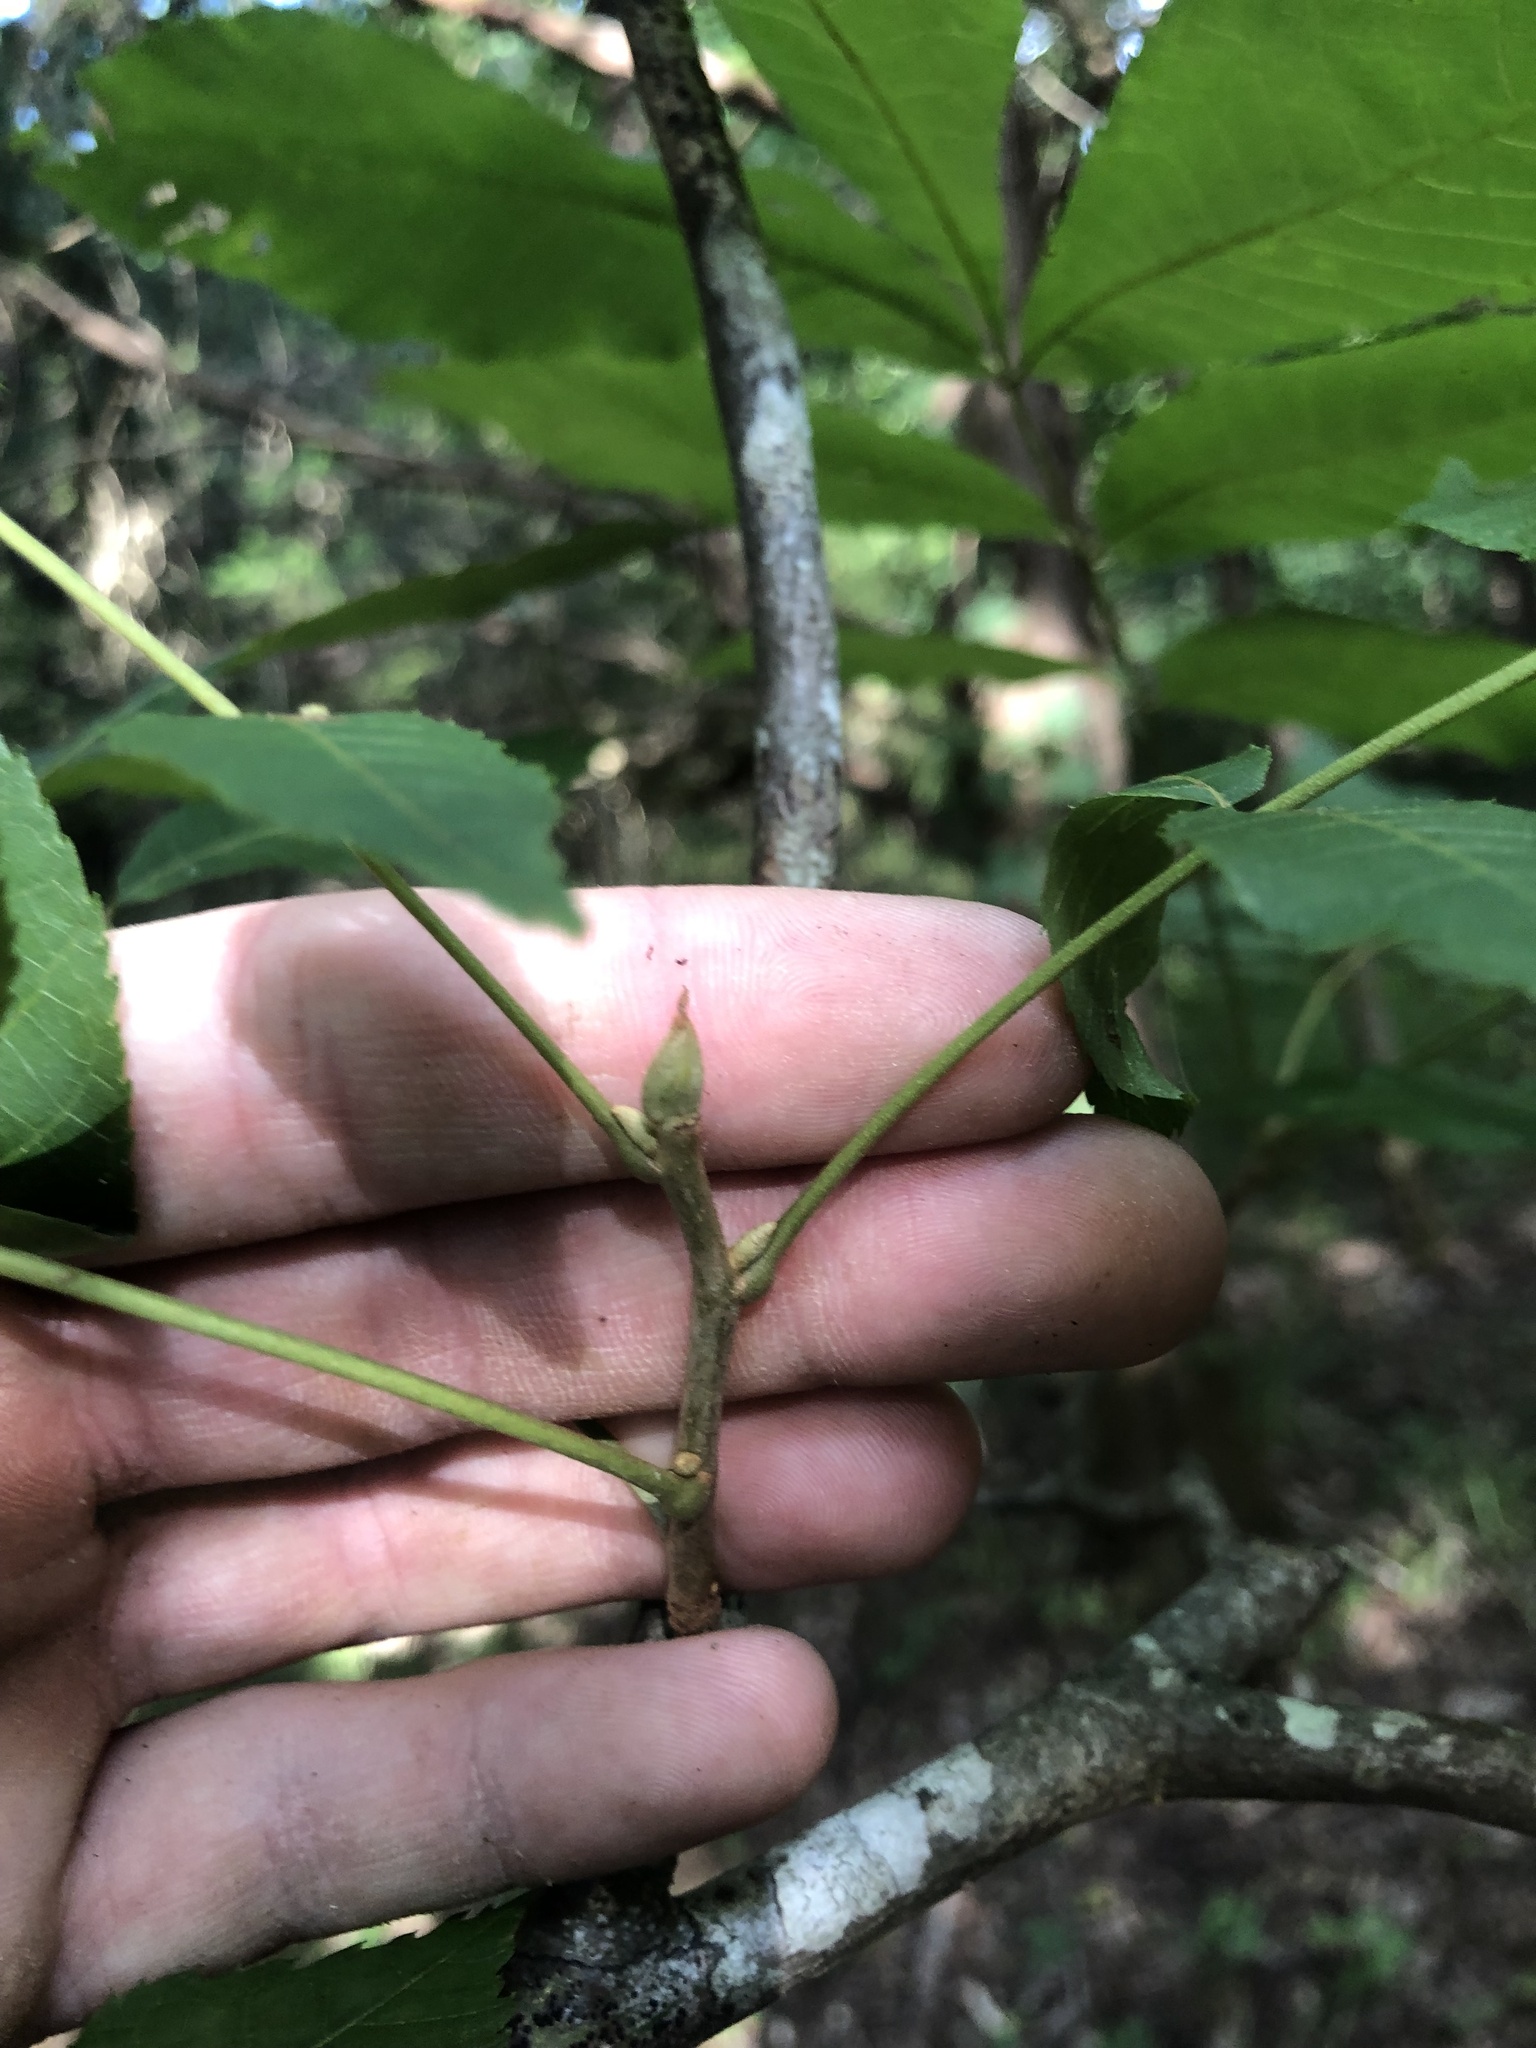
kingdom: Plantae
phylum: Tracheophyta
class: Magnoliopsida
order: Fagales
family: Juglandaceae
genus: Carya
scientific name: Carya myristiciformis
